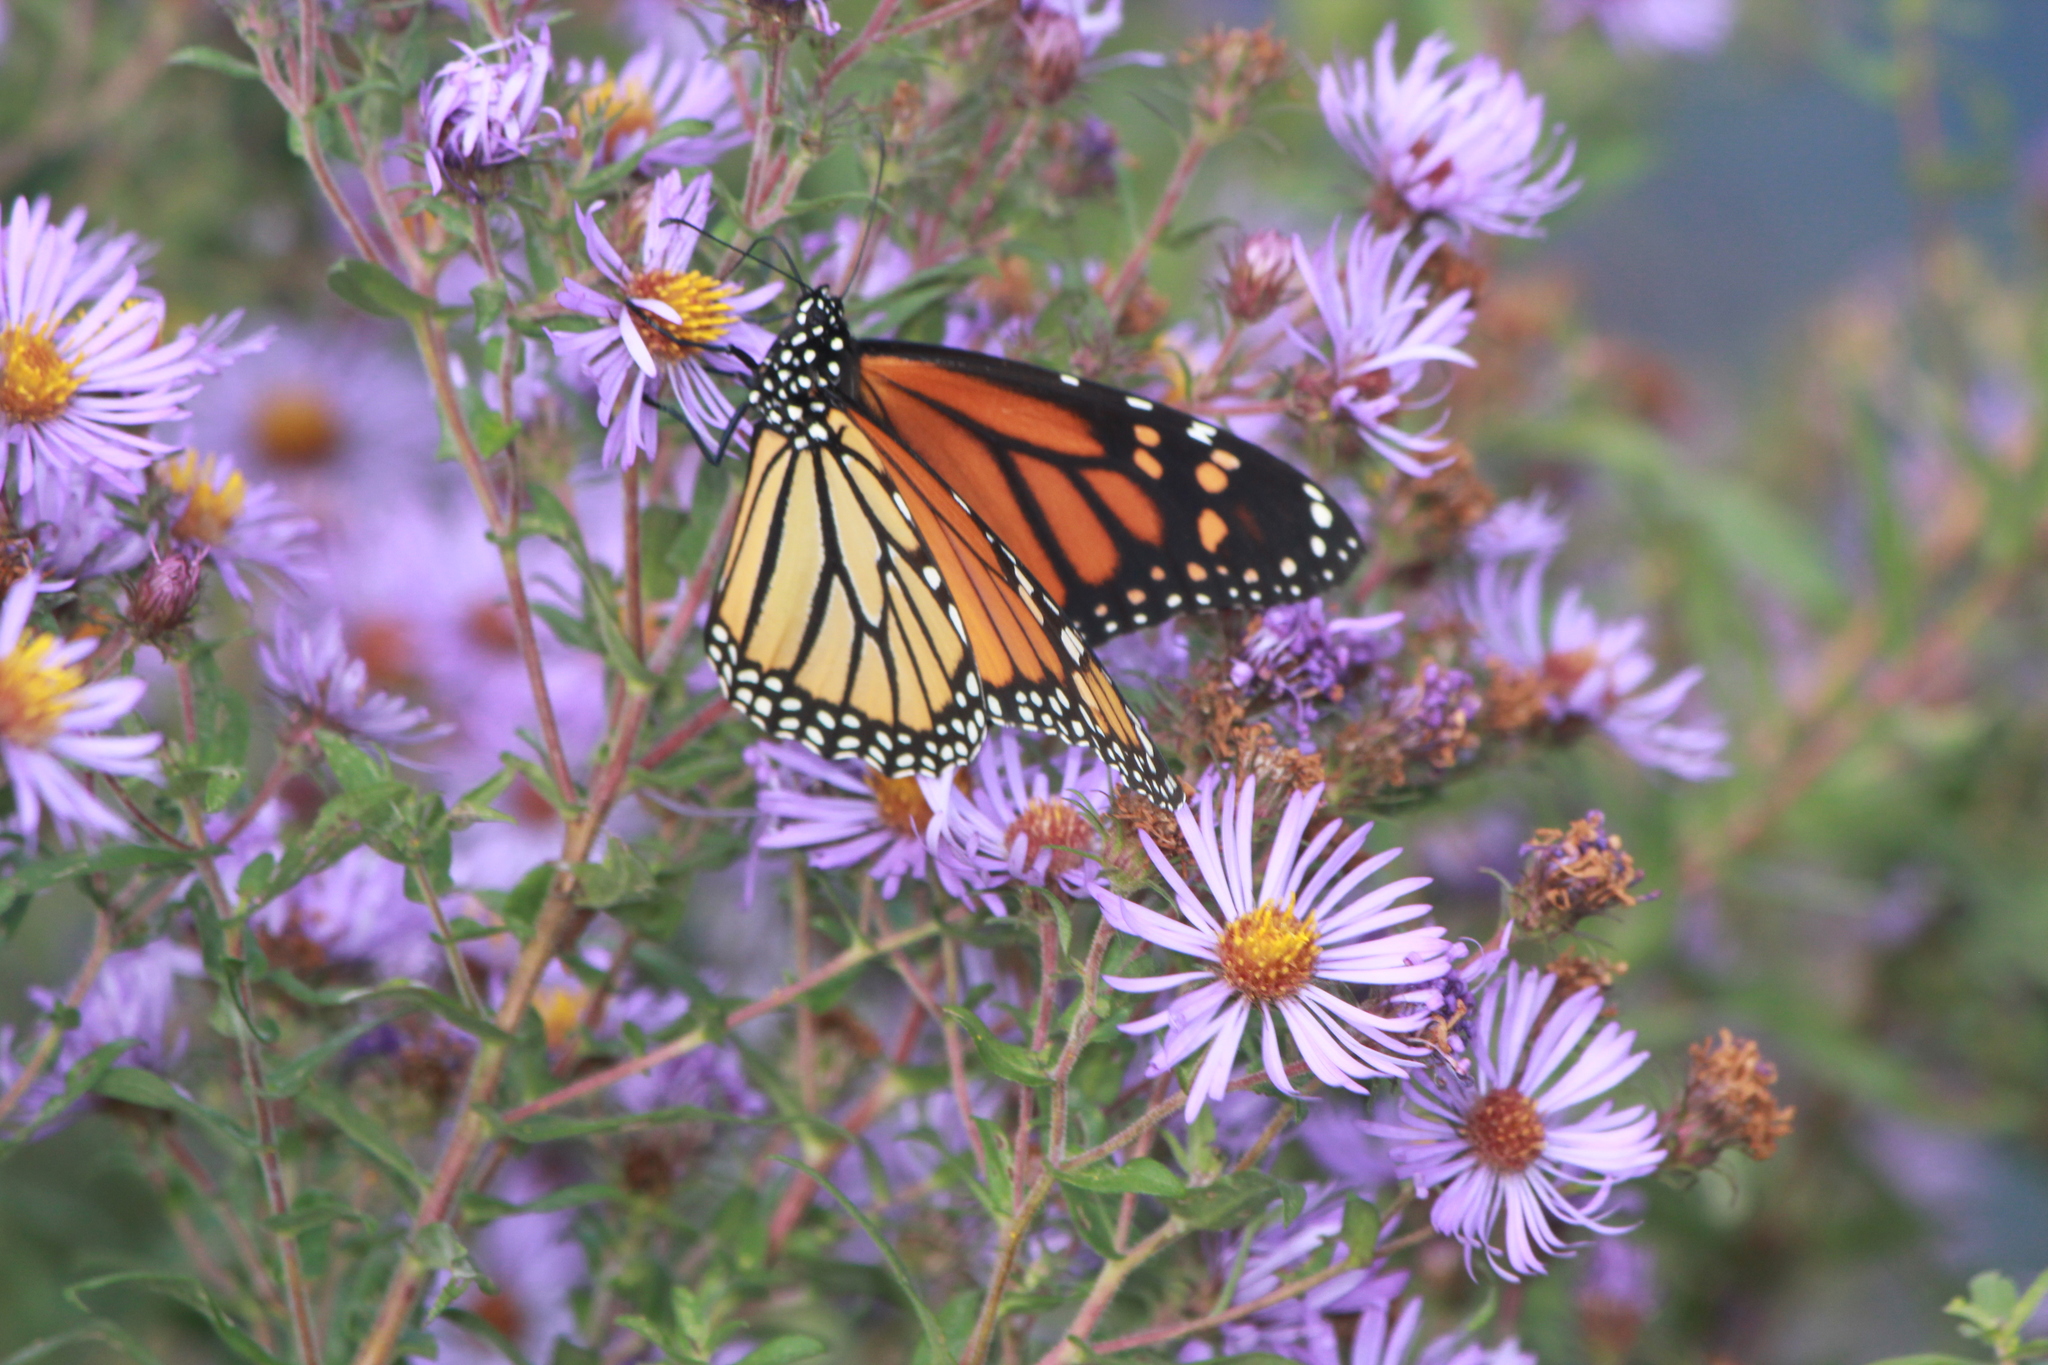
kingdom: Animalia
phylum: Arthropoda
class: Insecta
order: Lepidoptera
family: Nymphalidae
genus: Danaus
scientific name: Danaus plexippus
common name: Monarch
